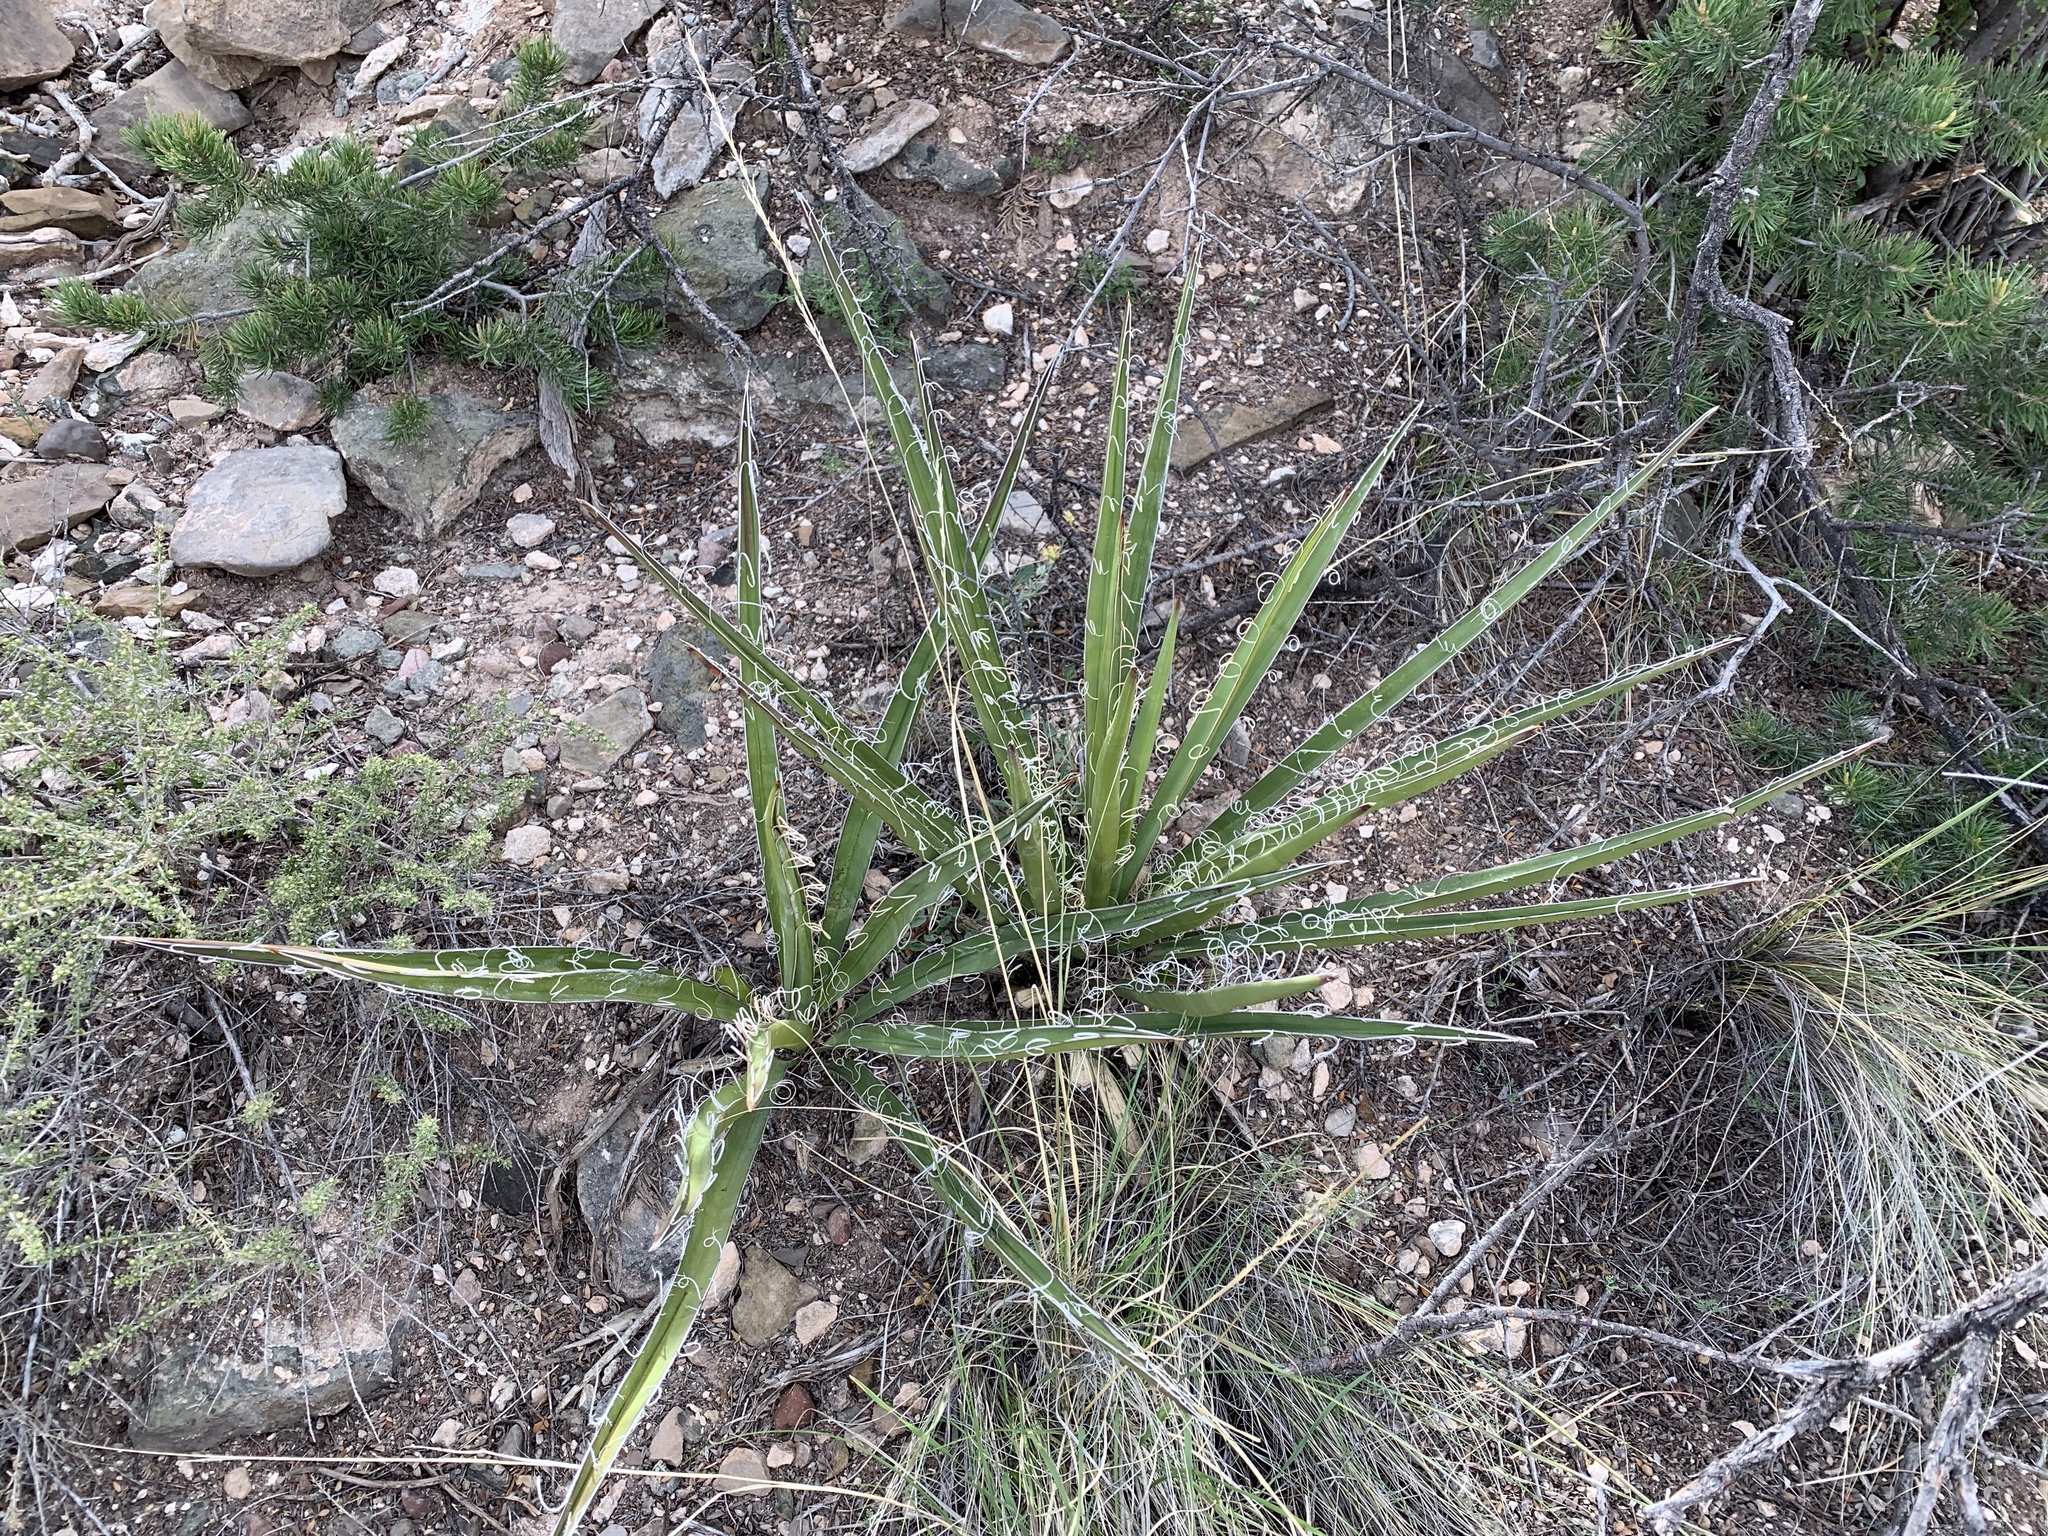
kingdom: Plantae
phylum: Tracheophyta
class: Liliopsida
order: Asparagales
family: Asparagaceae
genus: Yucca
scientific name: Yucca baccata
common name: Banana yucca
